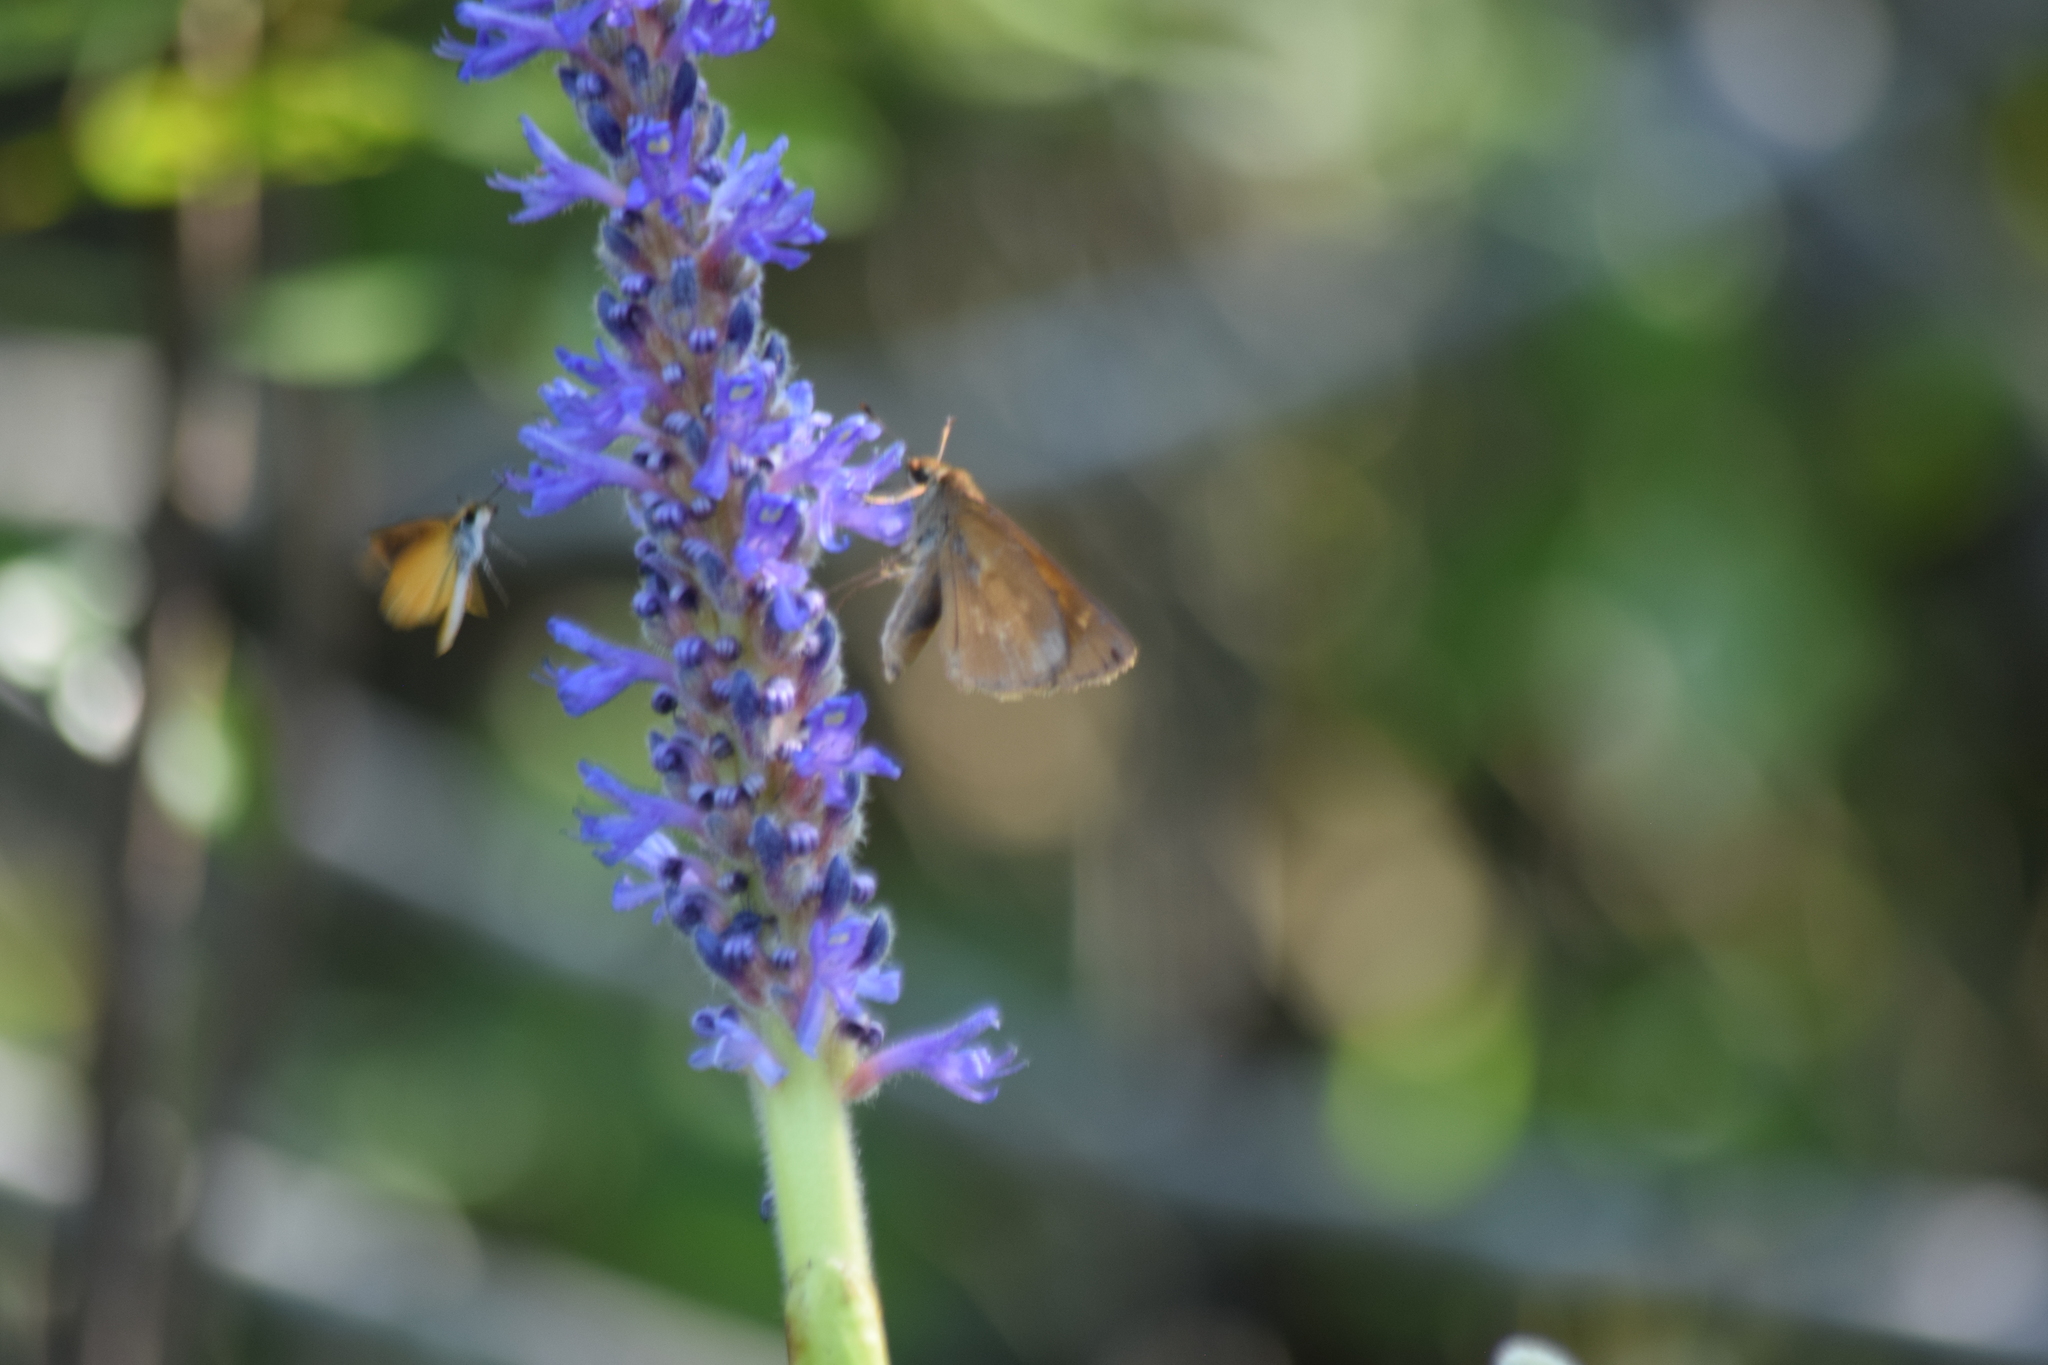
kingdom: Animalia
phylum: Arthropoda
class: Insecta
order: Lepidoptera
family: Hesperiidae
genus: Ancyloxypha
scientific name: Ancyloxypha numitor
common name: Least skipper
